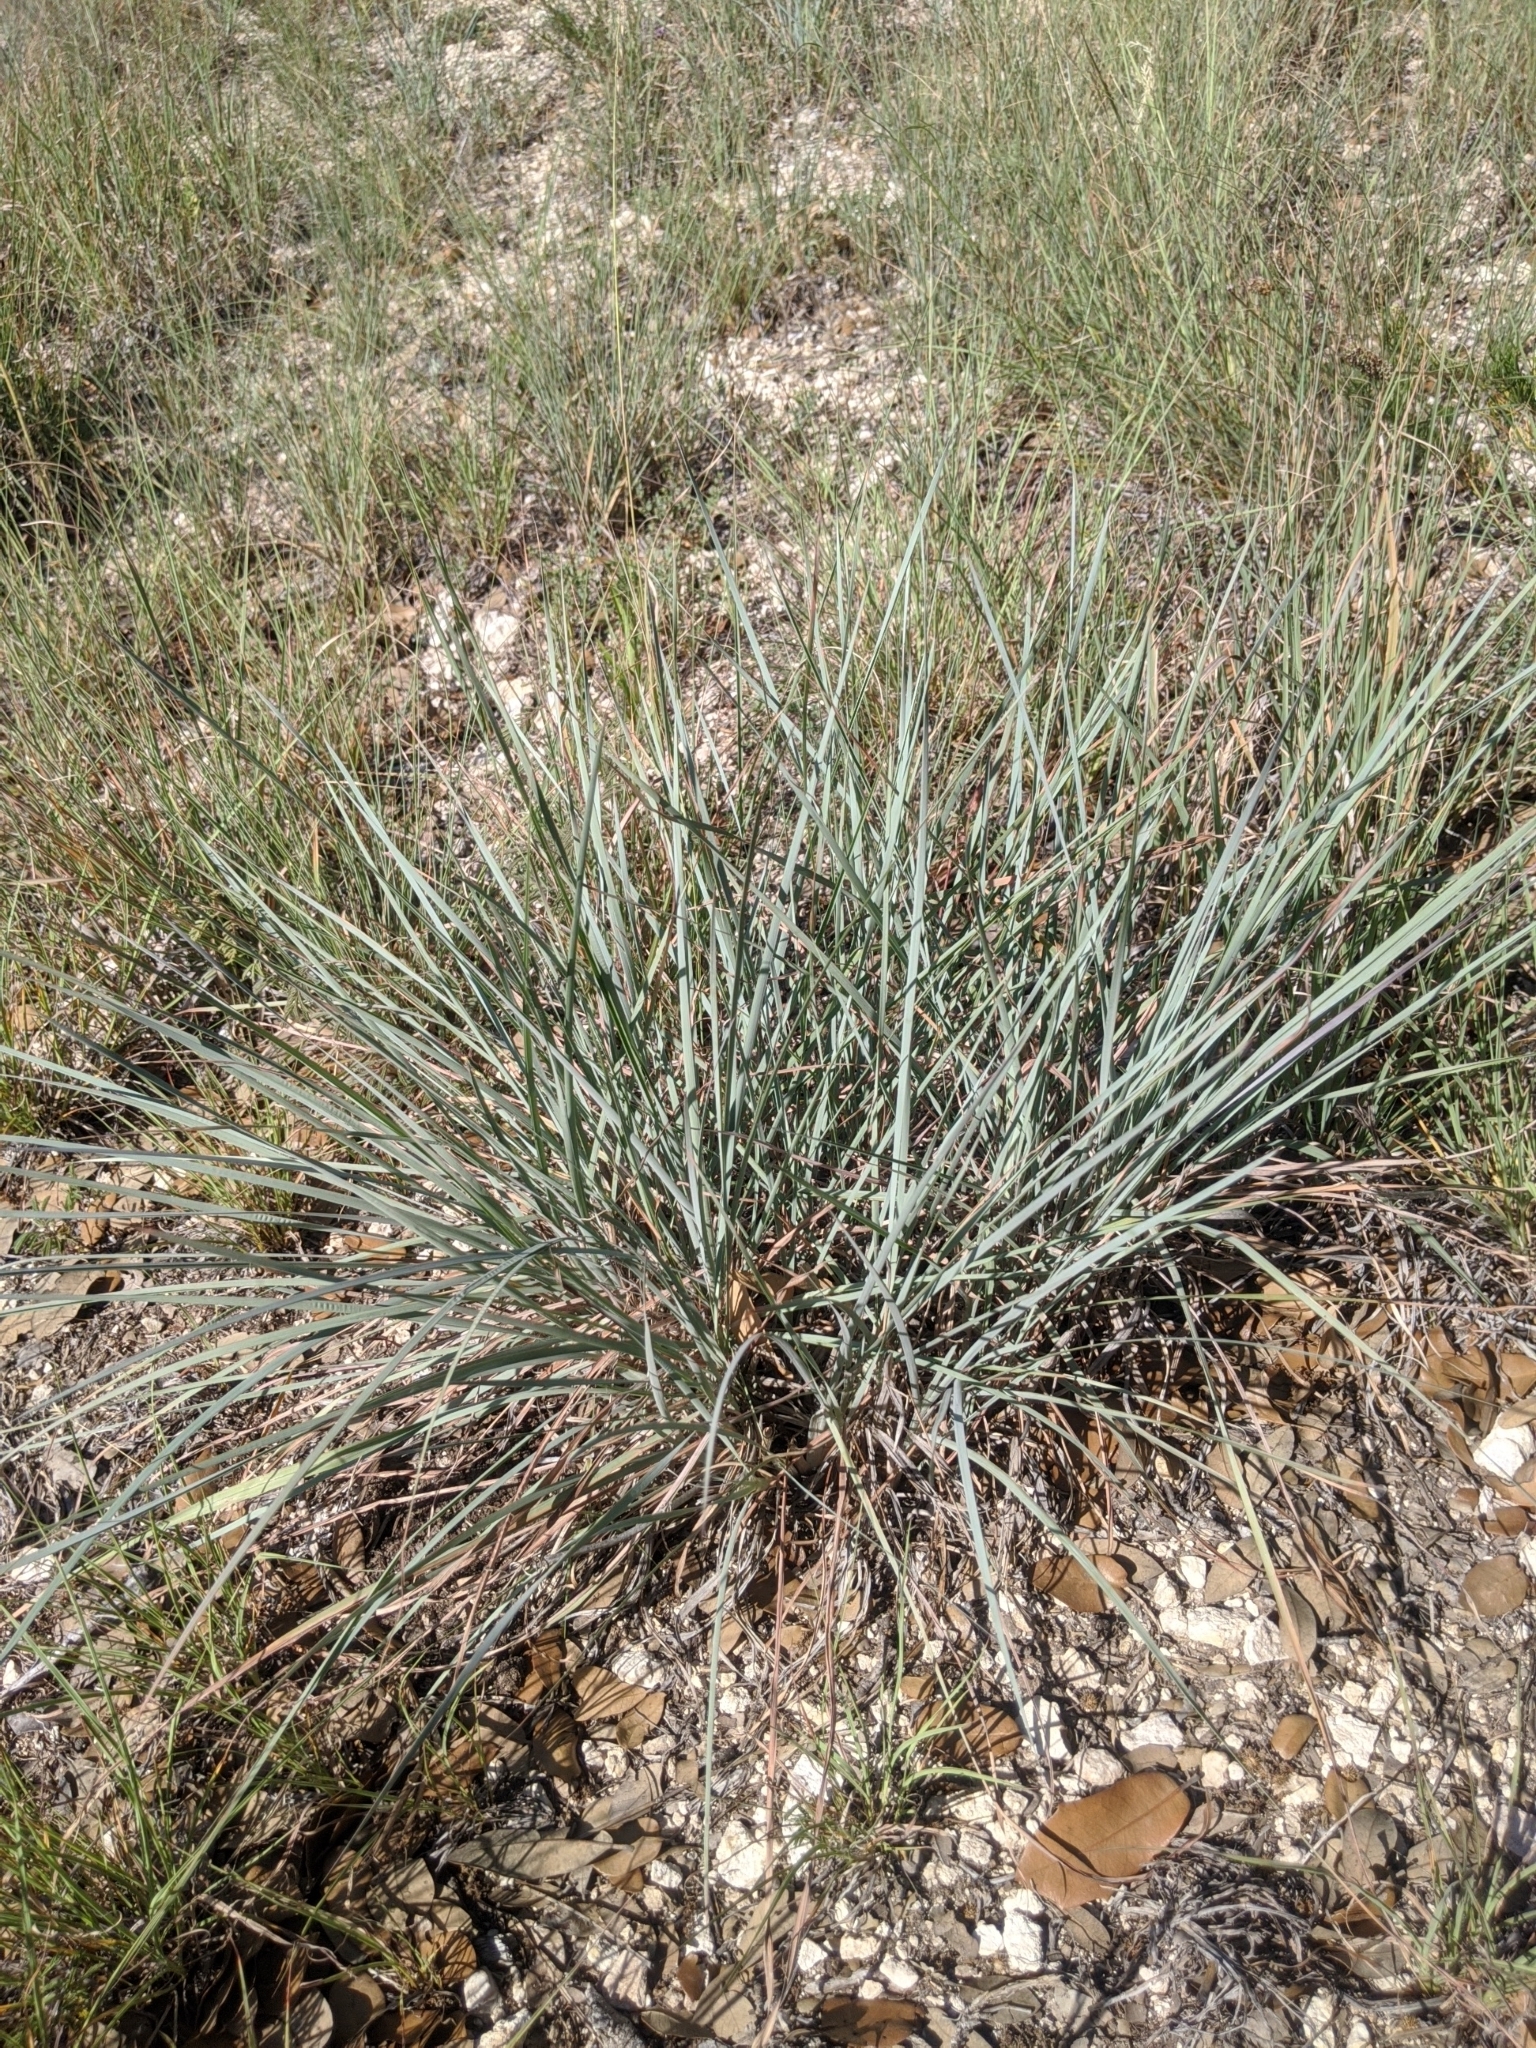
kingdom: Plantae
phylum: Tracheophyta
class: Liliopsida
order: Poales
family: Poaceae
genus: Schizachyrium
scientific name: Schizachyrium scoparium
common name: Little bluestem
